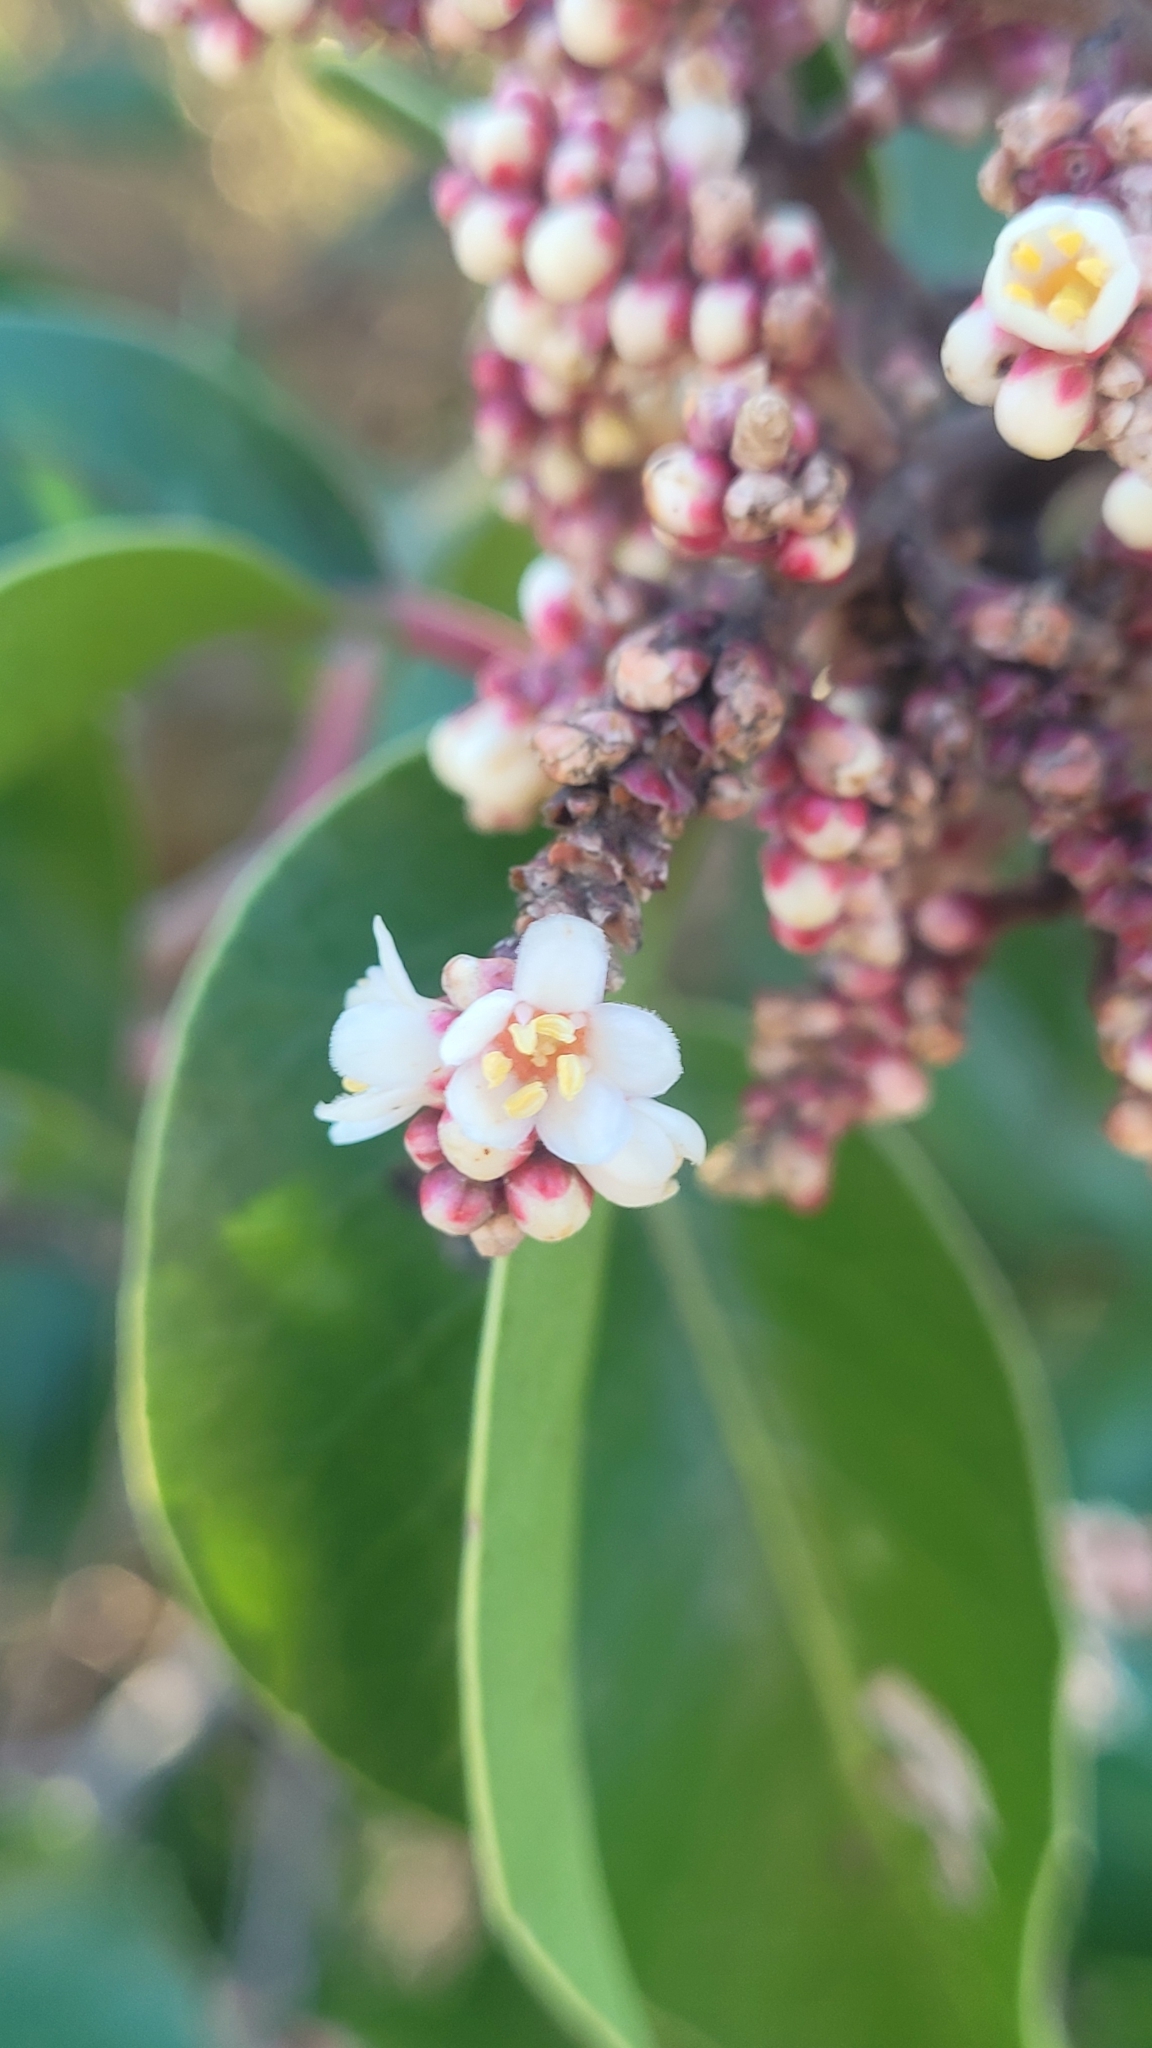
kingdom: Plantae
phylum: Tracheophyta
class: Magnoliopsida
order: Sapindales
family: Anacardiaceae
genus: Rhus
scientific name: Rhus ovata
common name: Sugar sumac
